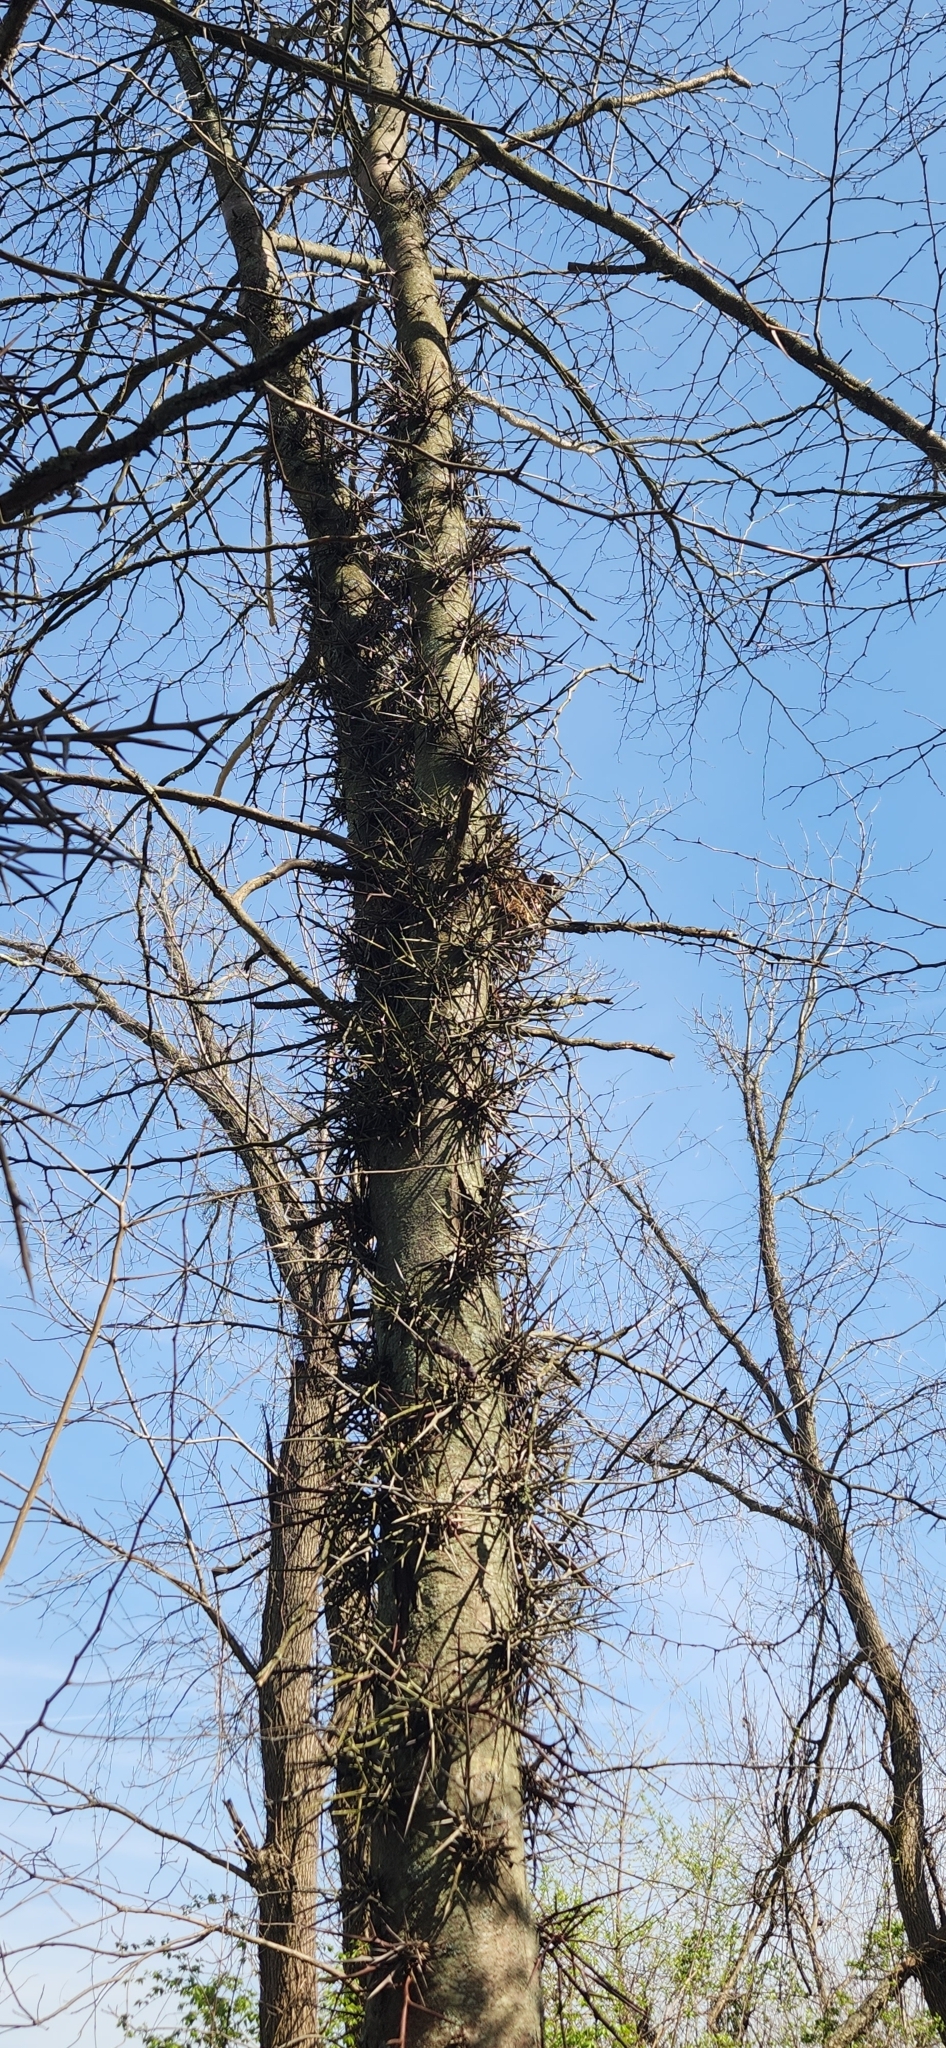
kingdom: Plantae
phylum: Tracheophyta
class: Magnoliopsida
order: Fabales
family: Fabaceae
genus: Gleditsia
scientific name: Gleditsia triacanthos
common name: Common honeylocust
